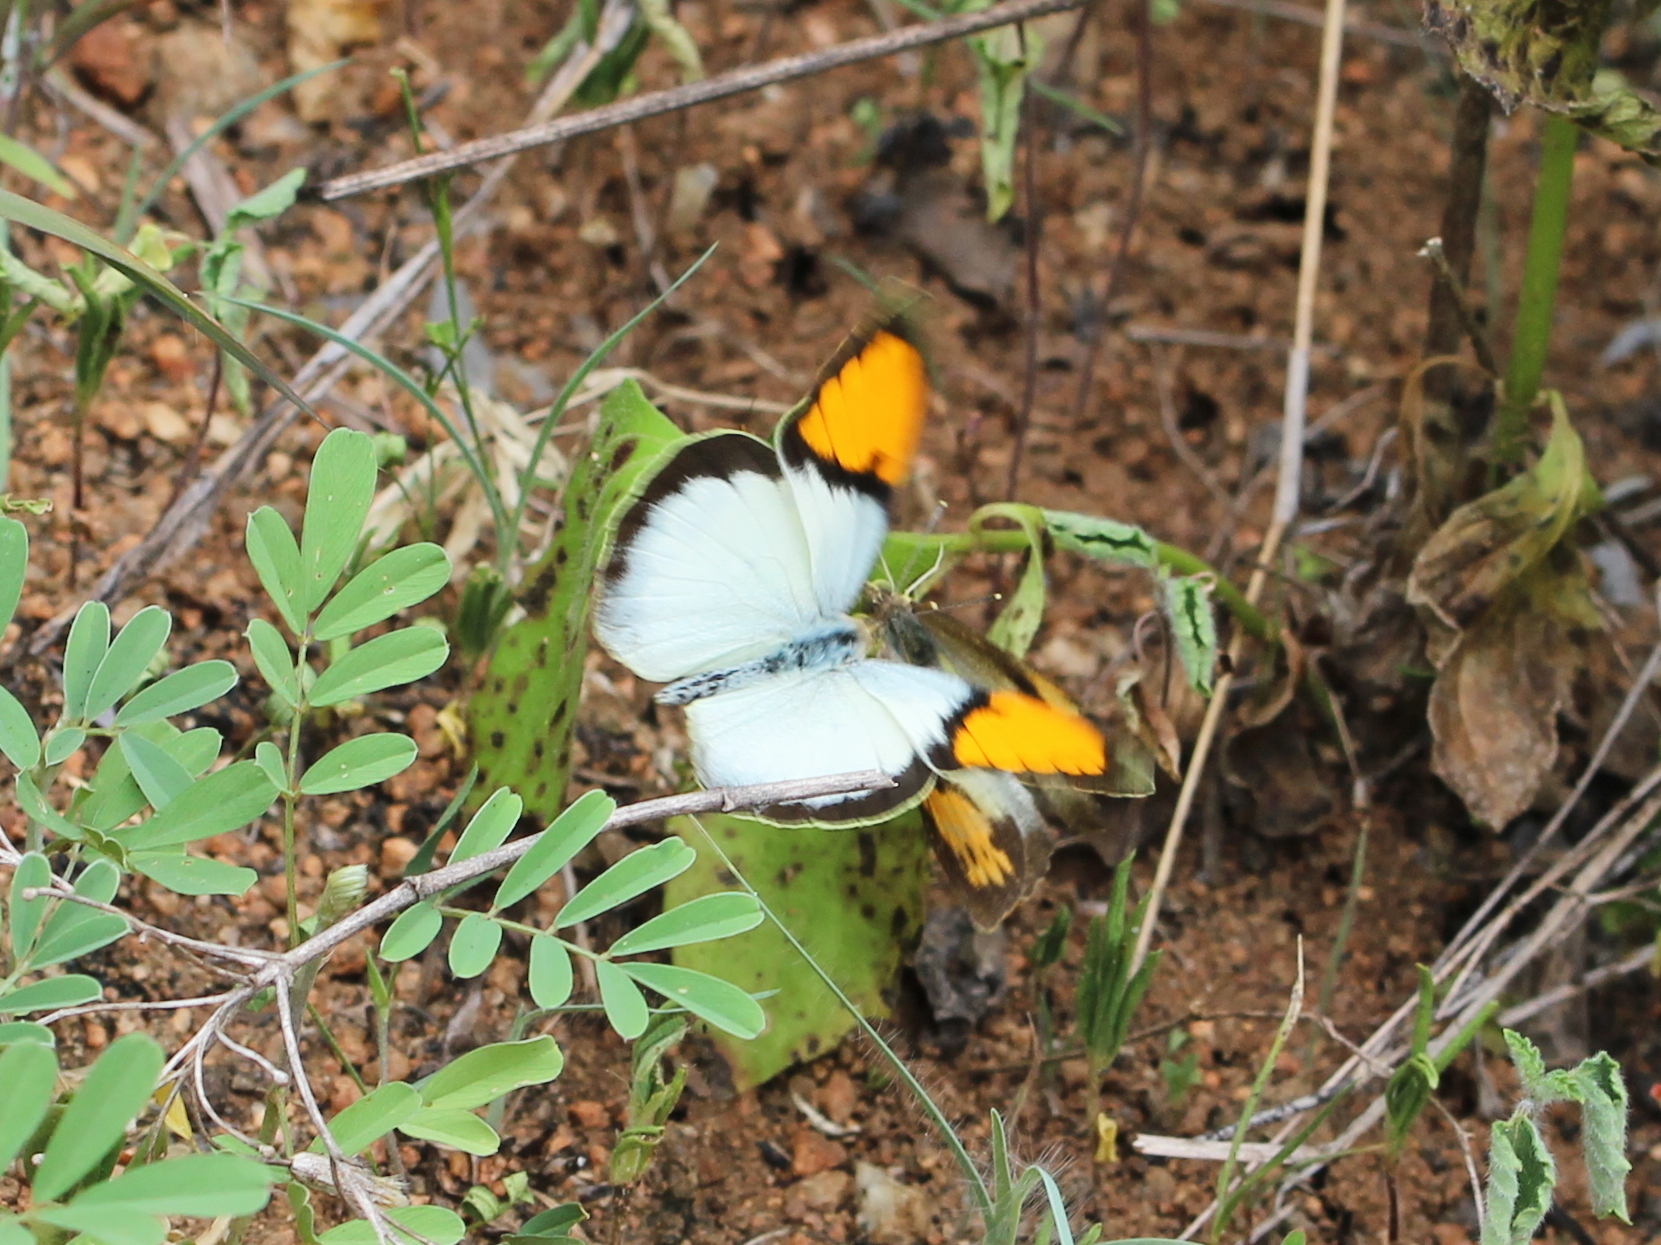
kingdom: Animalia
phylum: Arthropoda
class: Insecta
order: Lepidoptera
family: Pieridae
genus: Ixias
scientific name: Ixias marianne
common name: White orange tip
